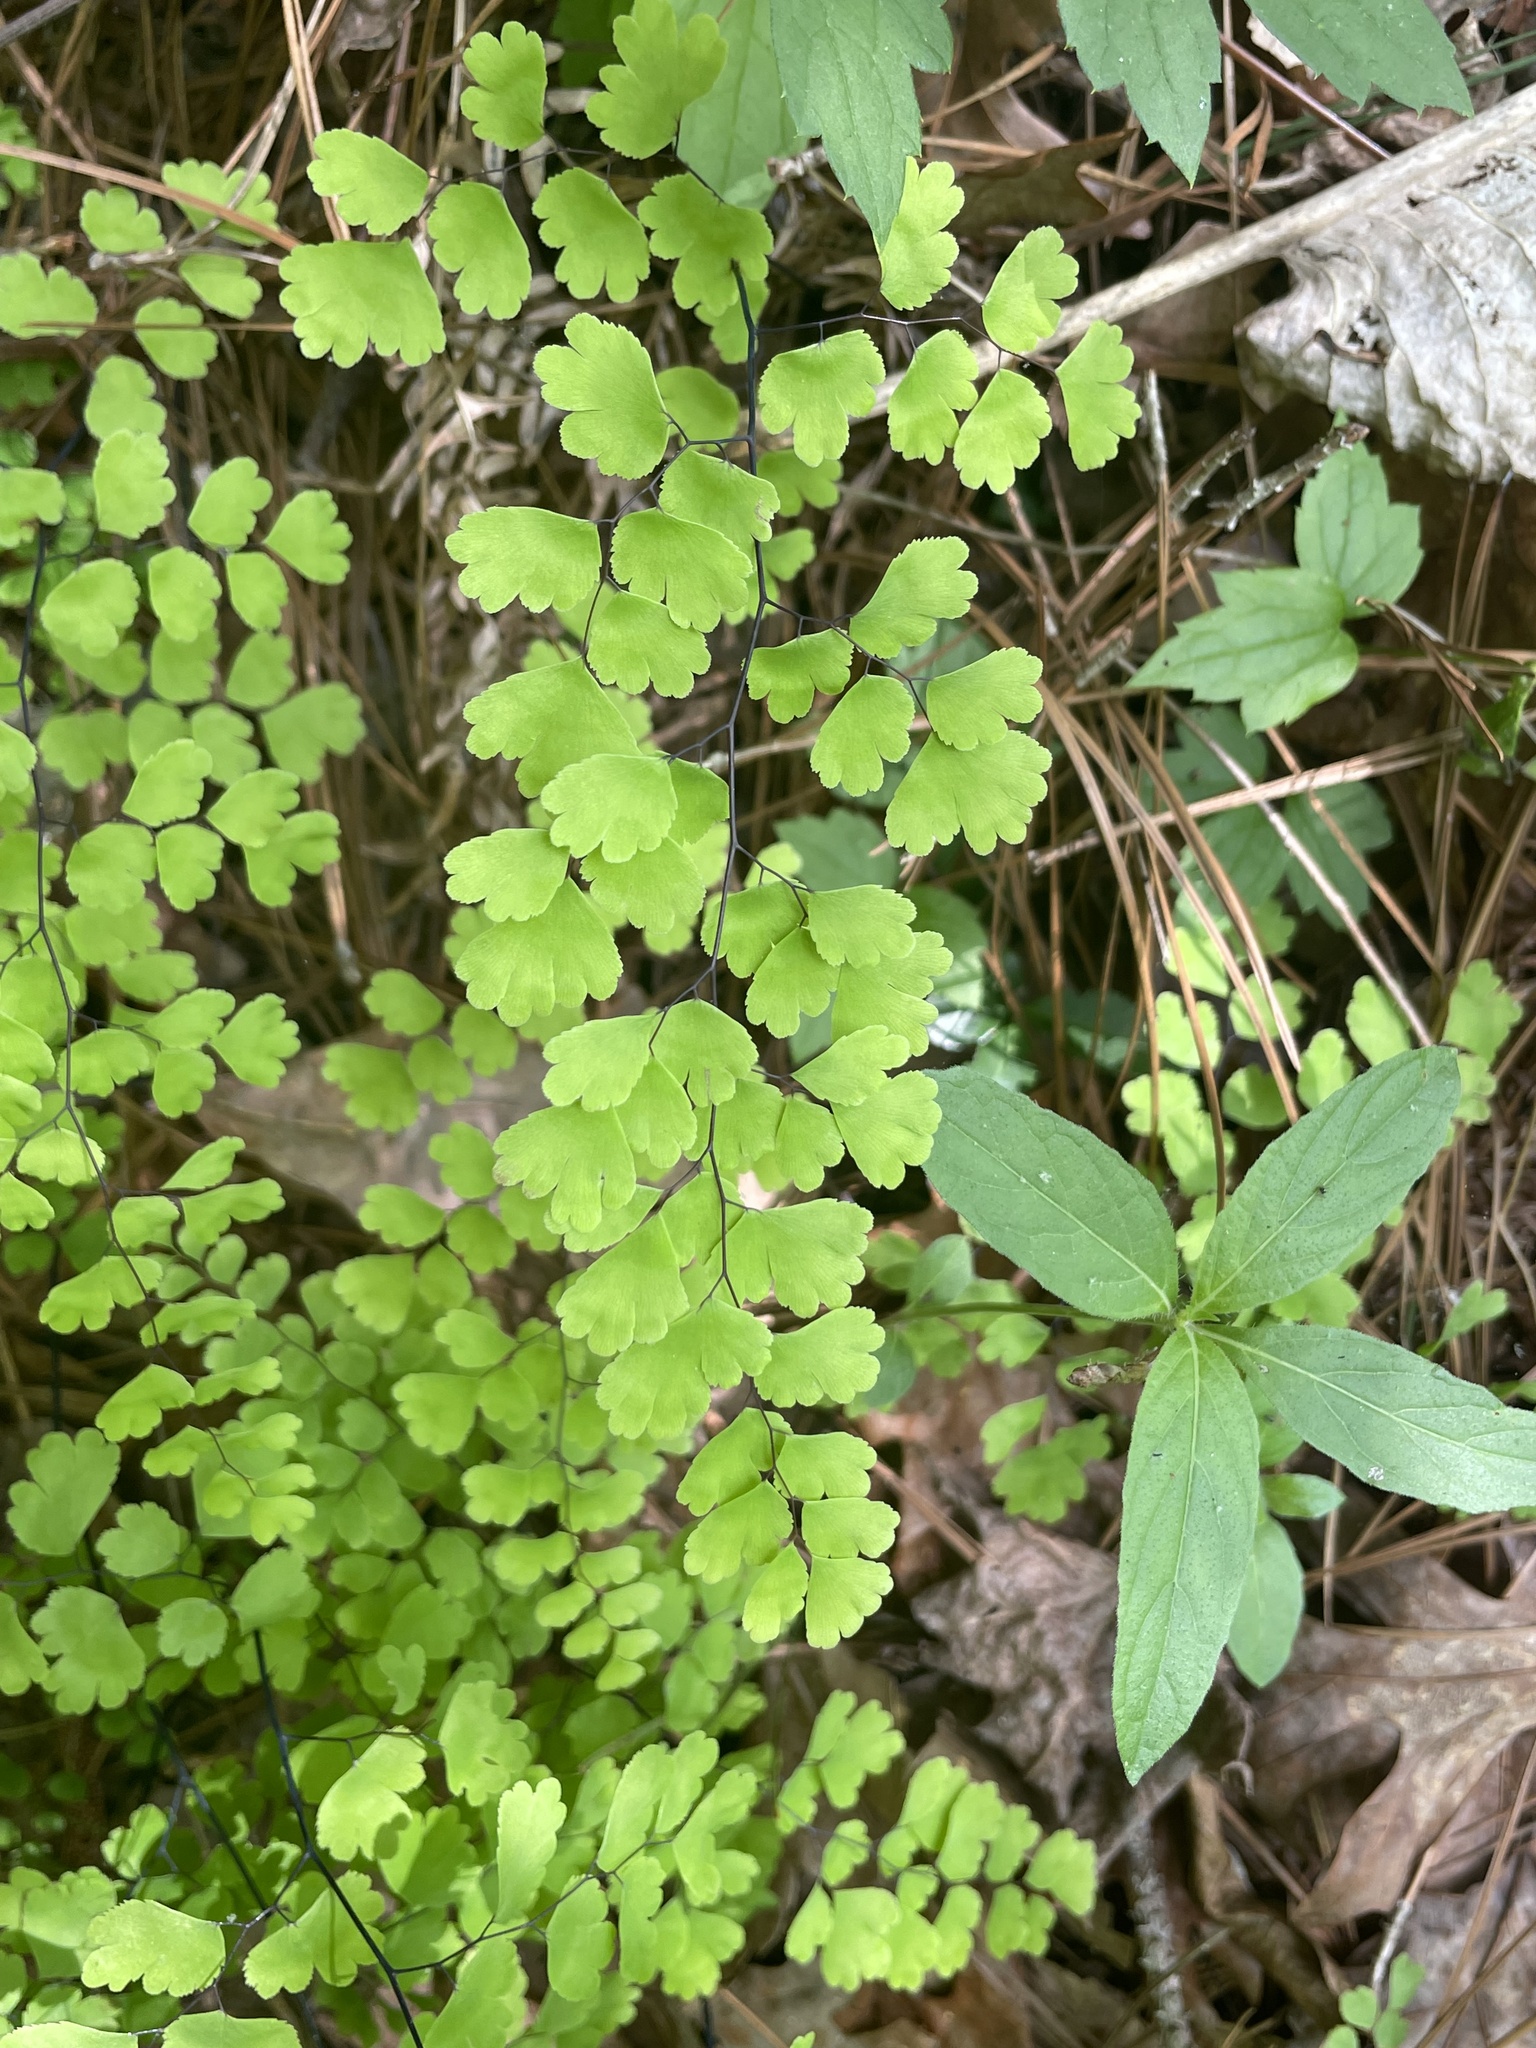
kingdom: Plantae
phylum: Tracheophyta
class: Polypodiopsida
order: Polypodiales
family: Pteridaceae
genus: Adiantum
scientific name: Adiantum capillus-veneris
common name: Maidenhair fern
